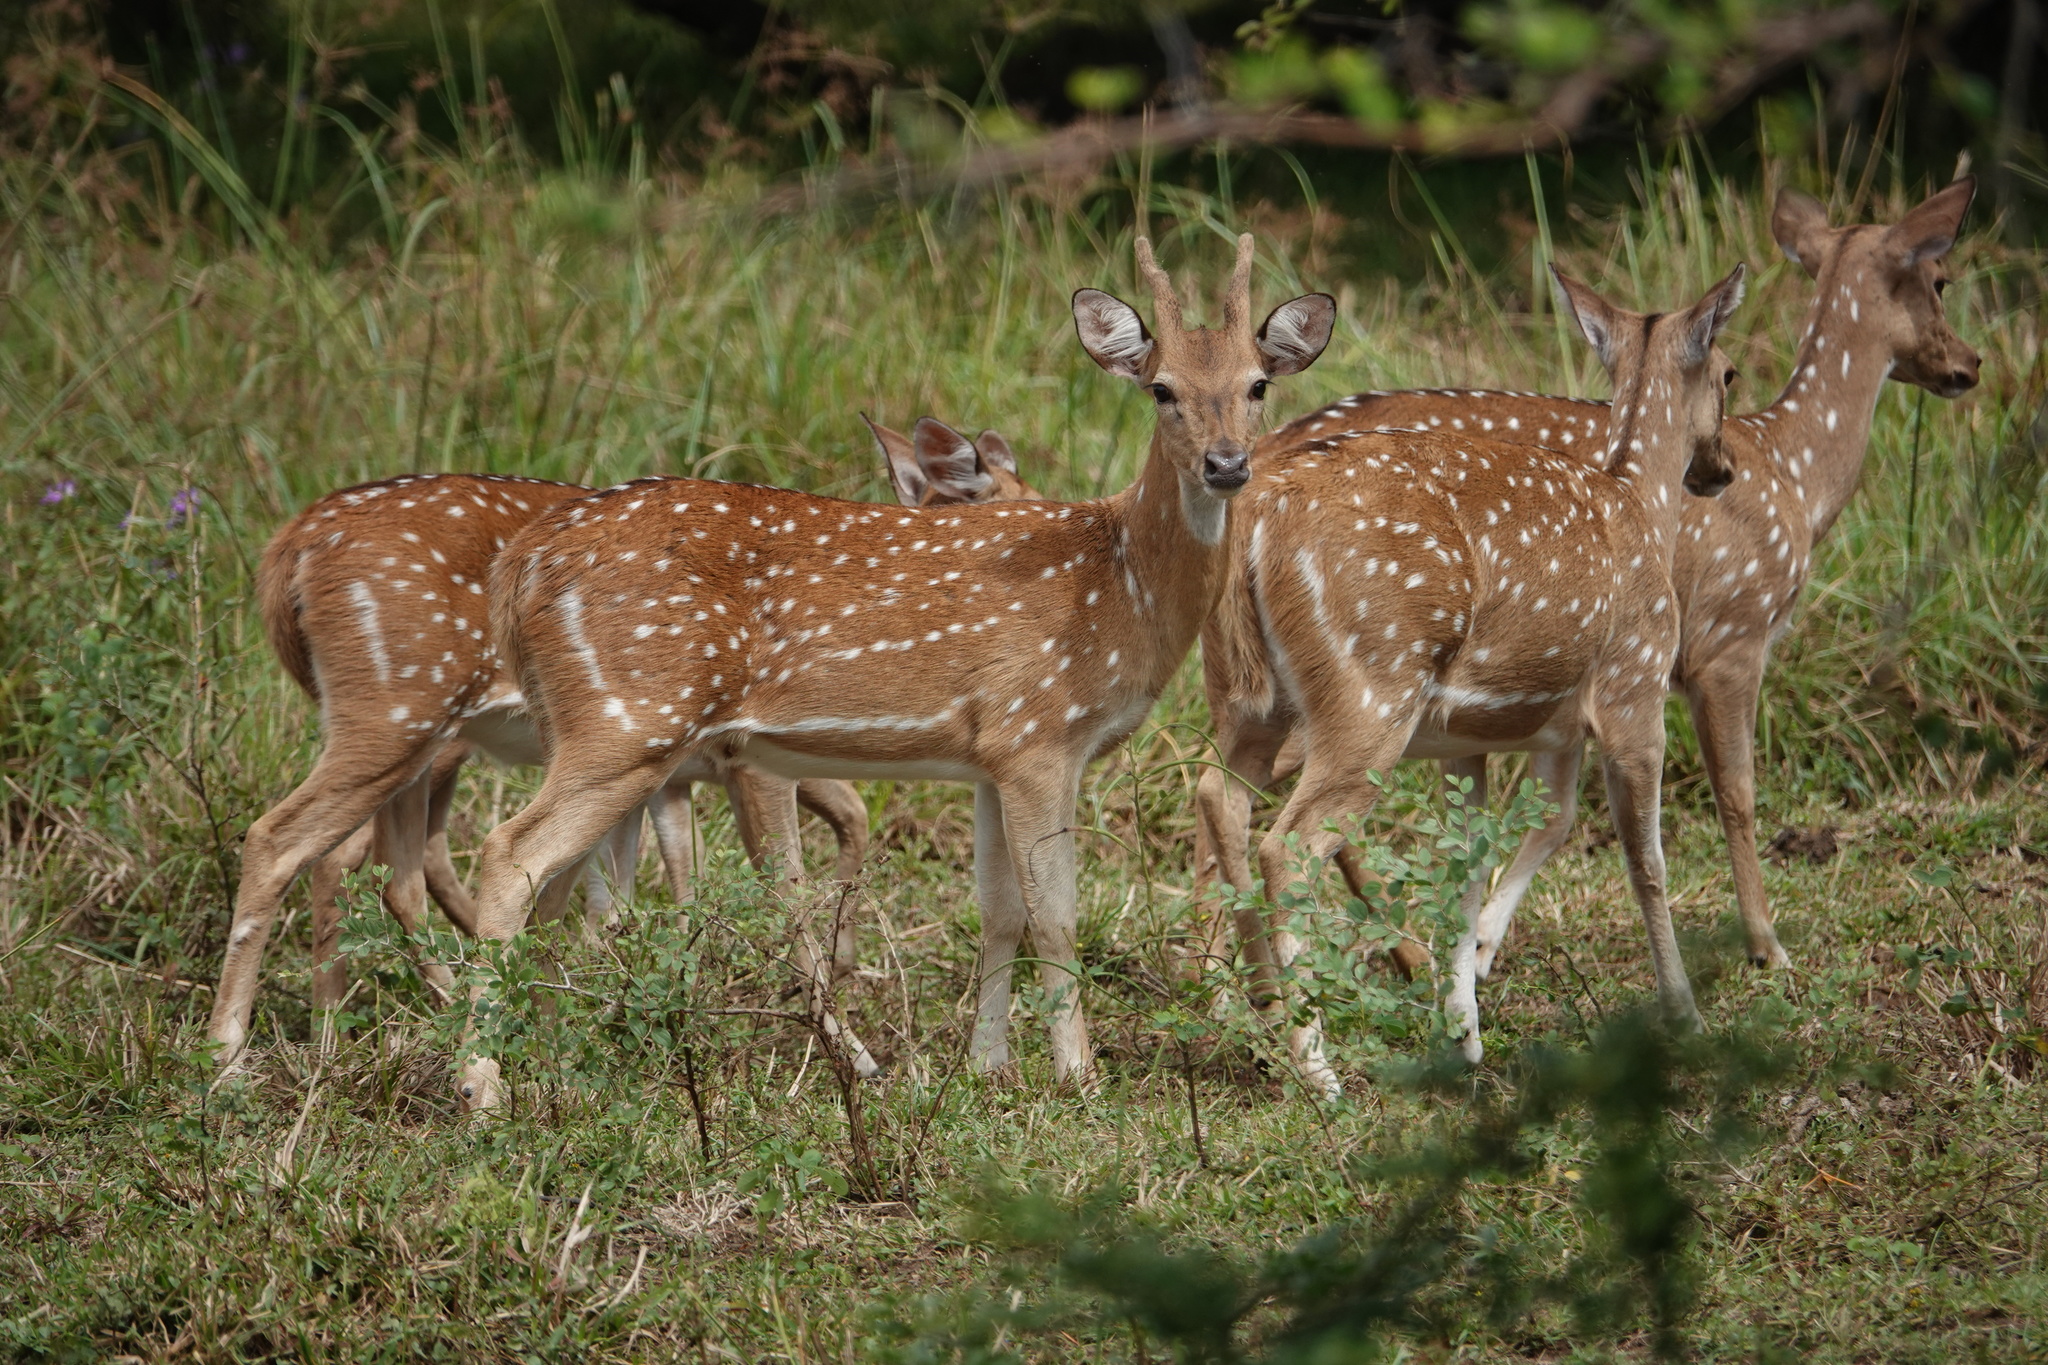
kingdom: Animalia
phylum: Chordata
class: Mammalia
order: Artiodactyla
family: Cervidae
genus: Axis
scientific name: Axis axis
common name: Chital
